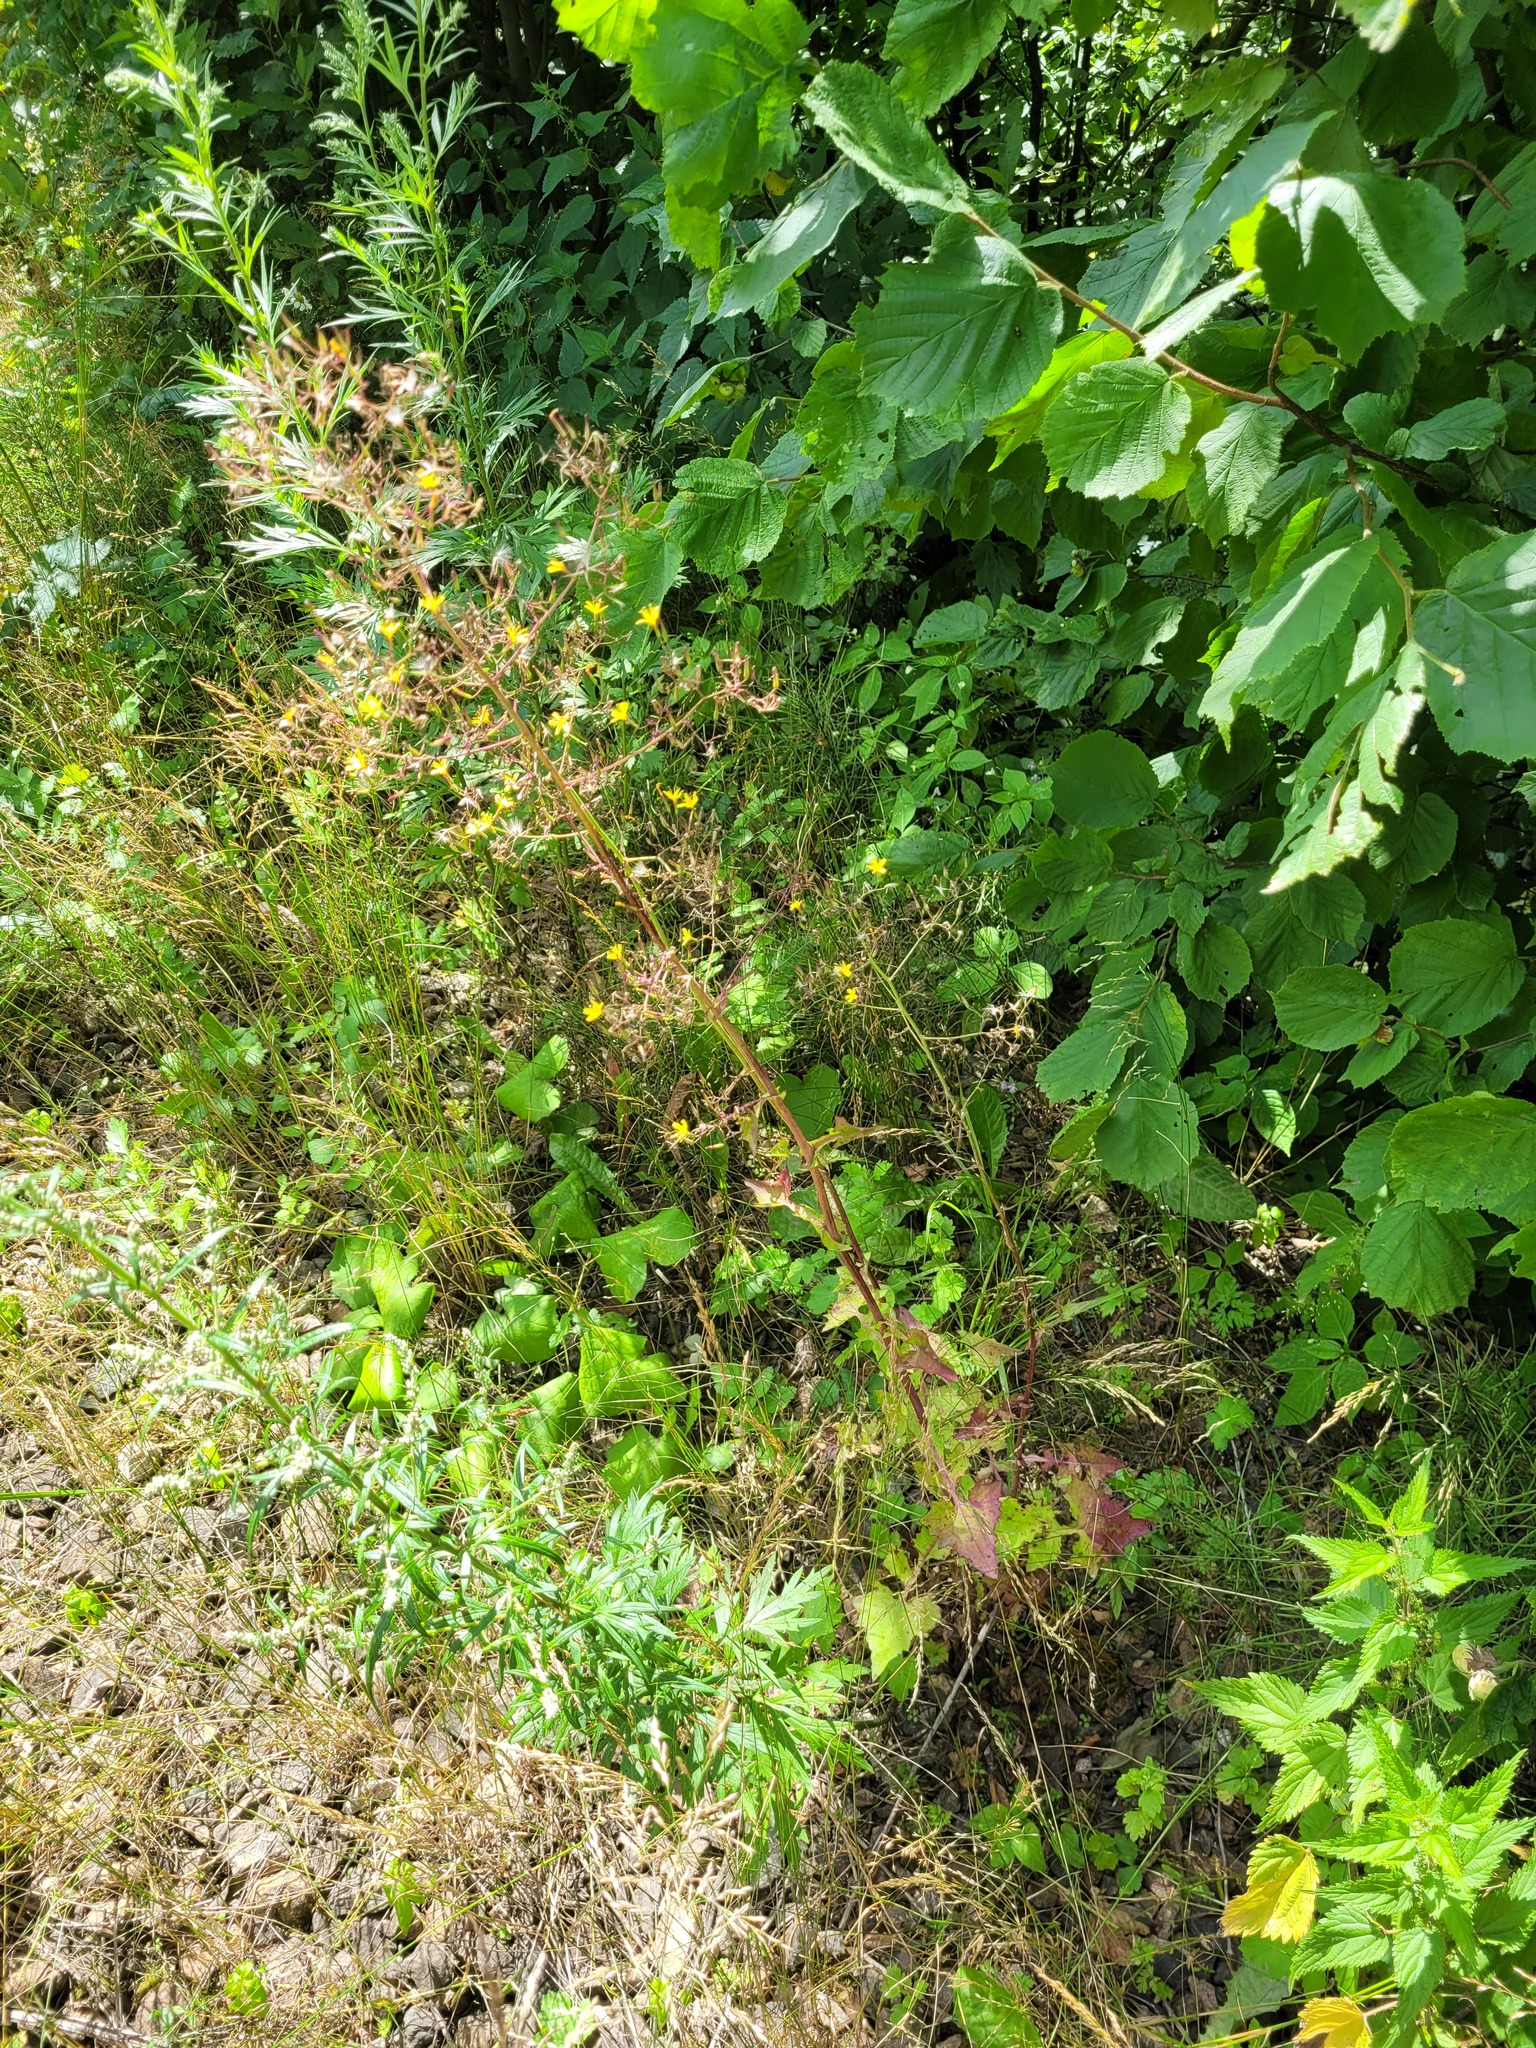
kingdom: Plantae
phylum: Tracheophyta
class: Magnoliopsida
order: Asterales
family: Asteraceae
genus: Mycelis
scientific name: Mycelis muralis
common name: Wall lettuce
